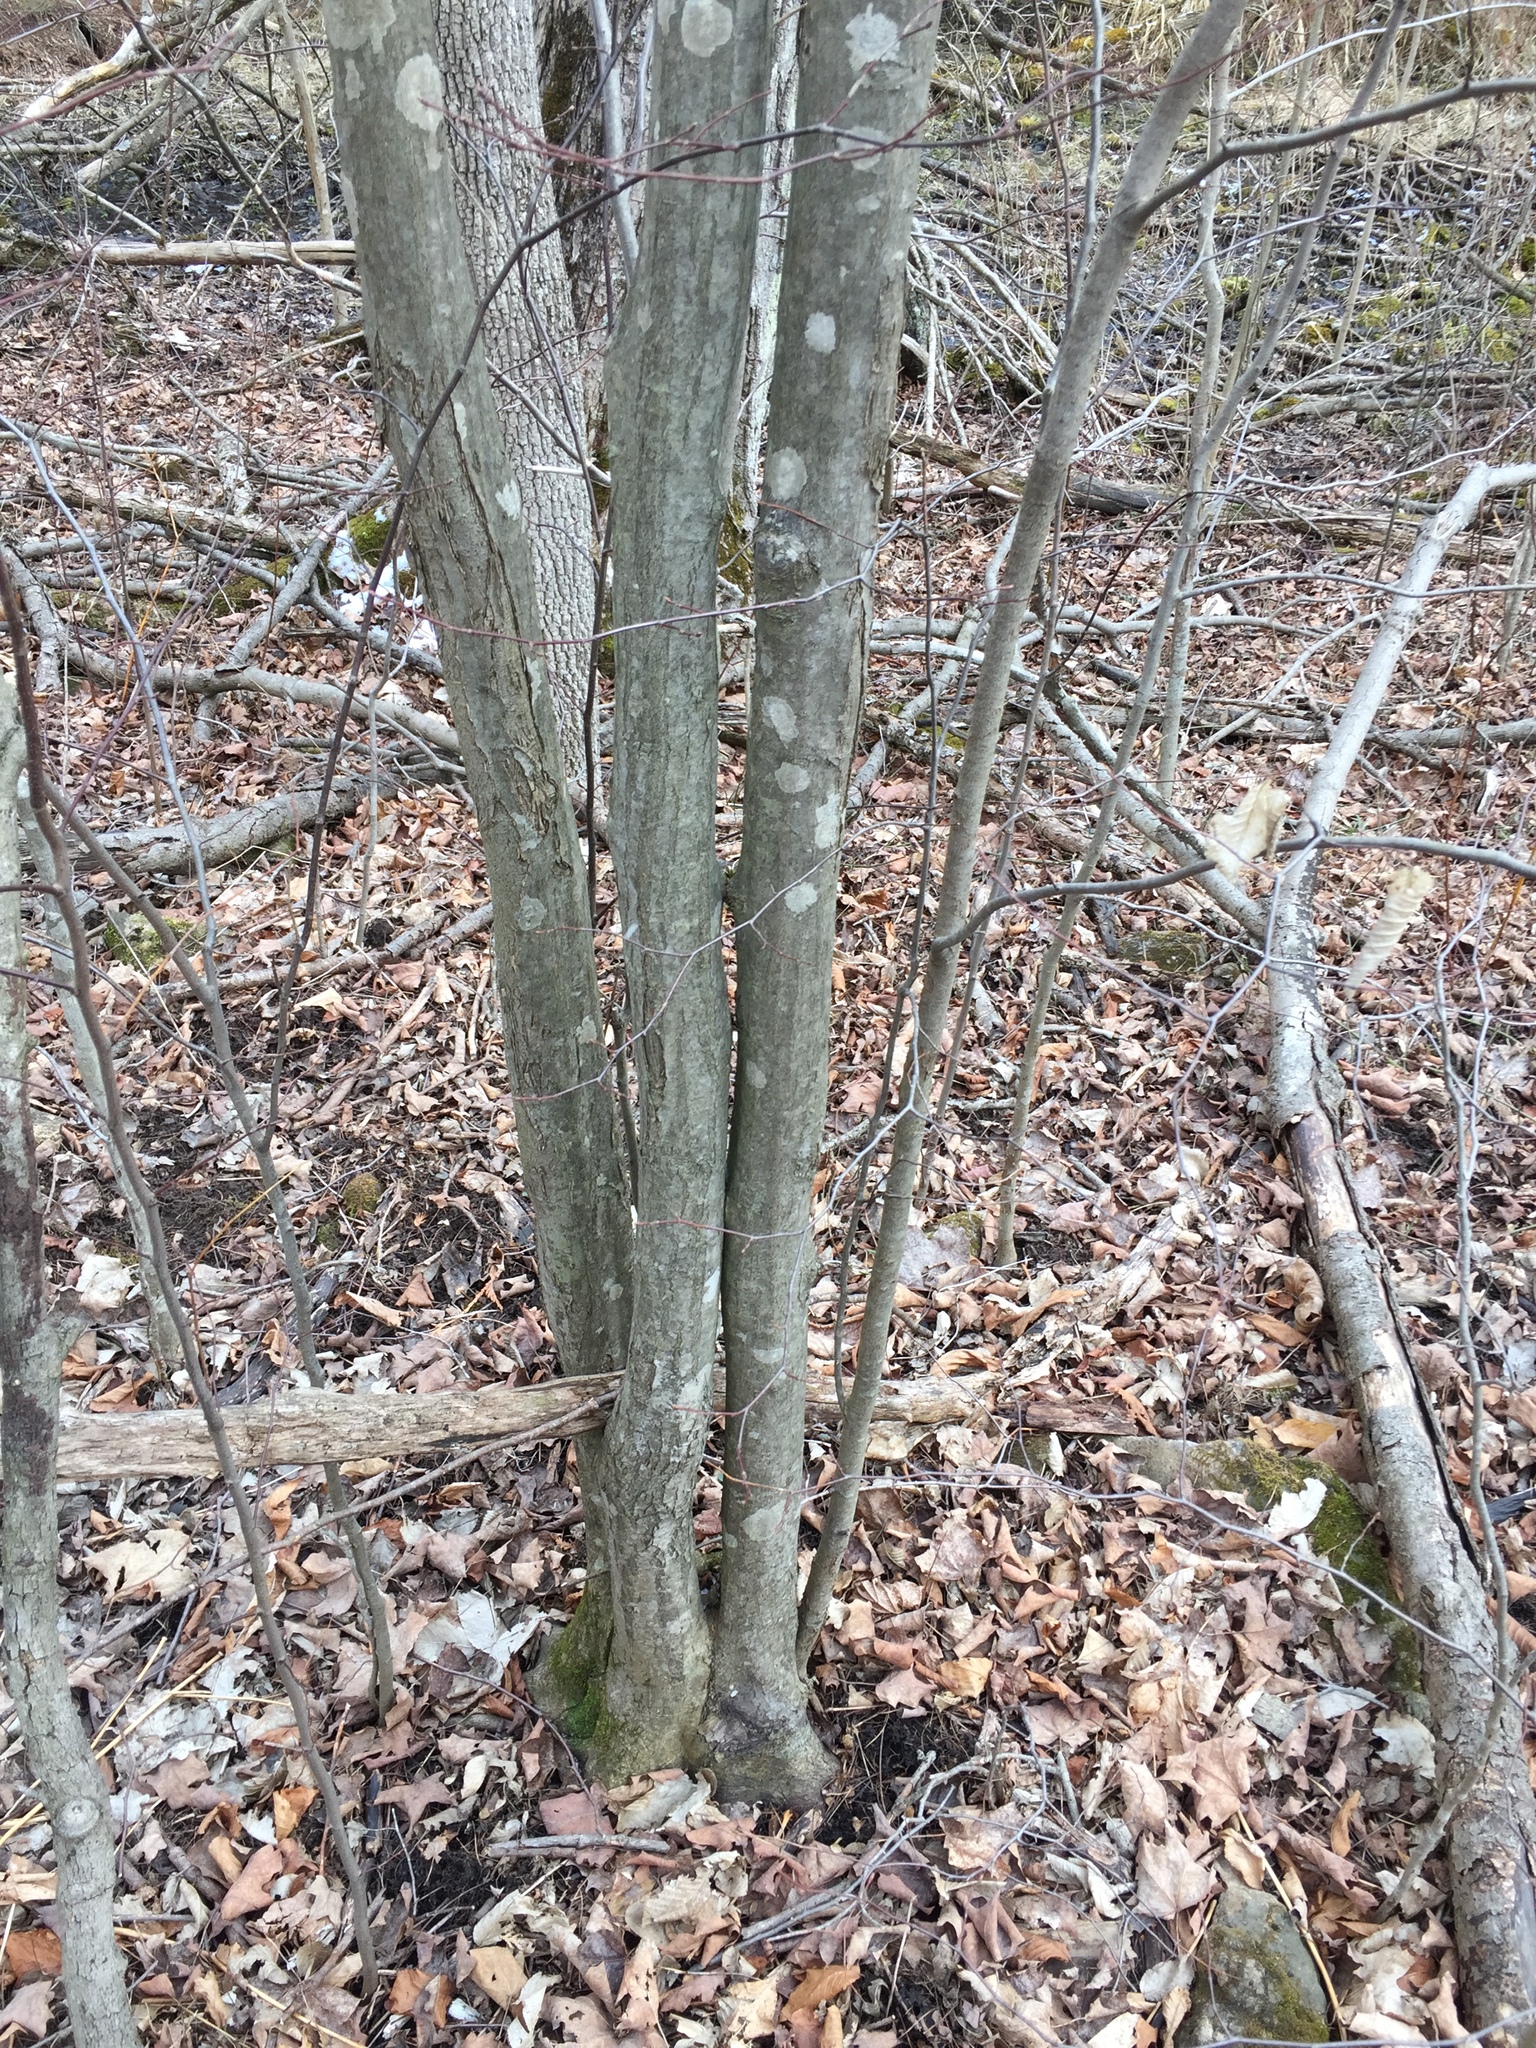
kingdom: Plantae
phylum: Tracheophyta
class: Magnoliopsida
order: Fagales
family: Betulaceae
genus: Carpinus
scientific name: Carpinus caroliniana
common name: American hornbeam
